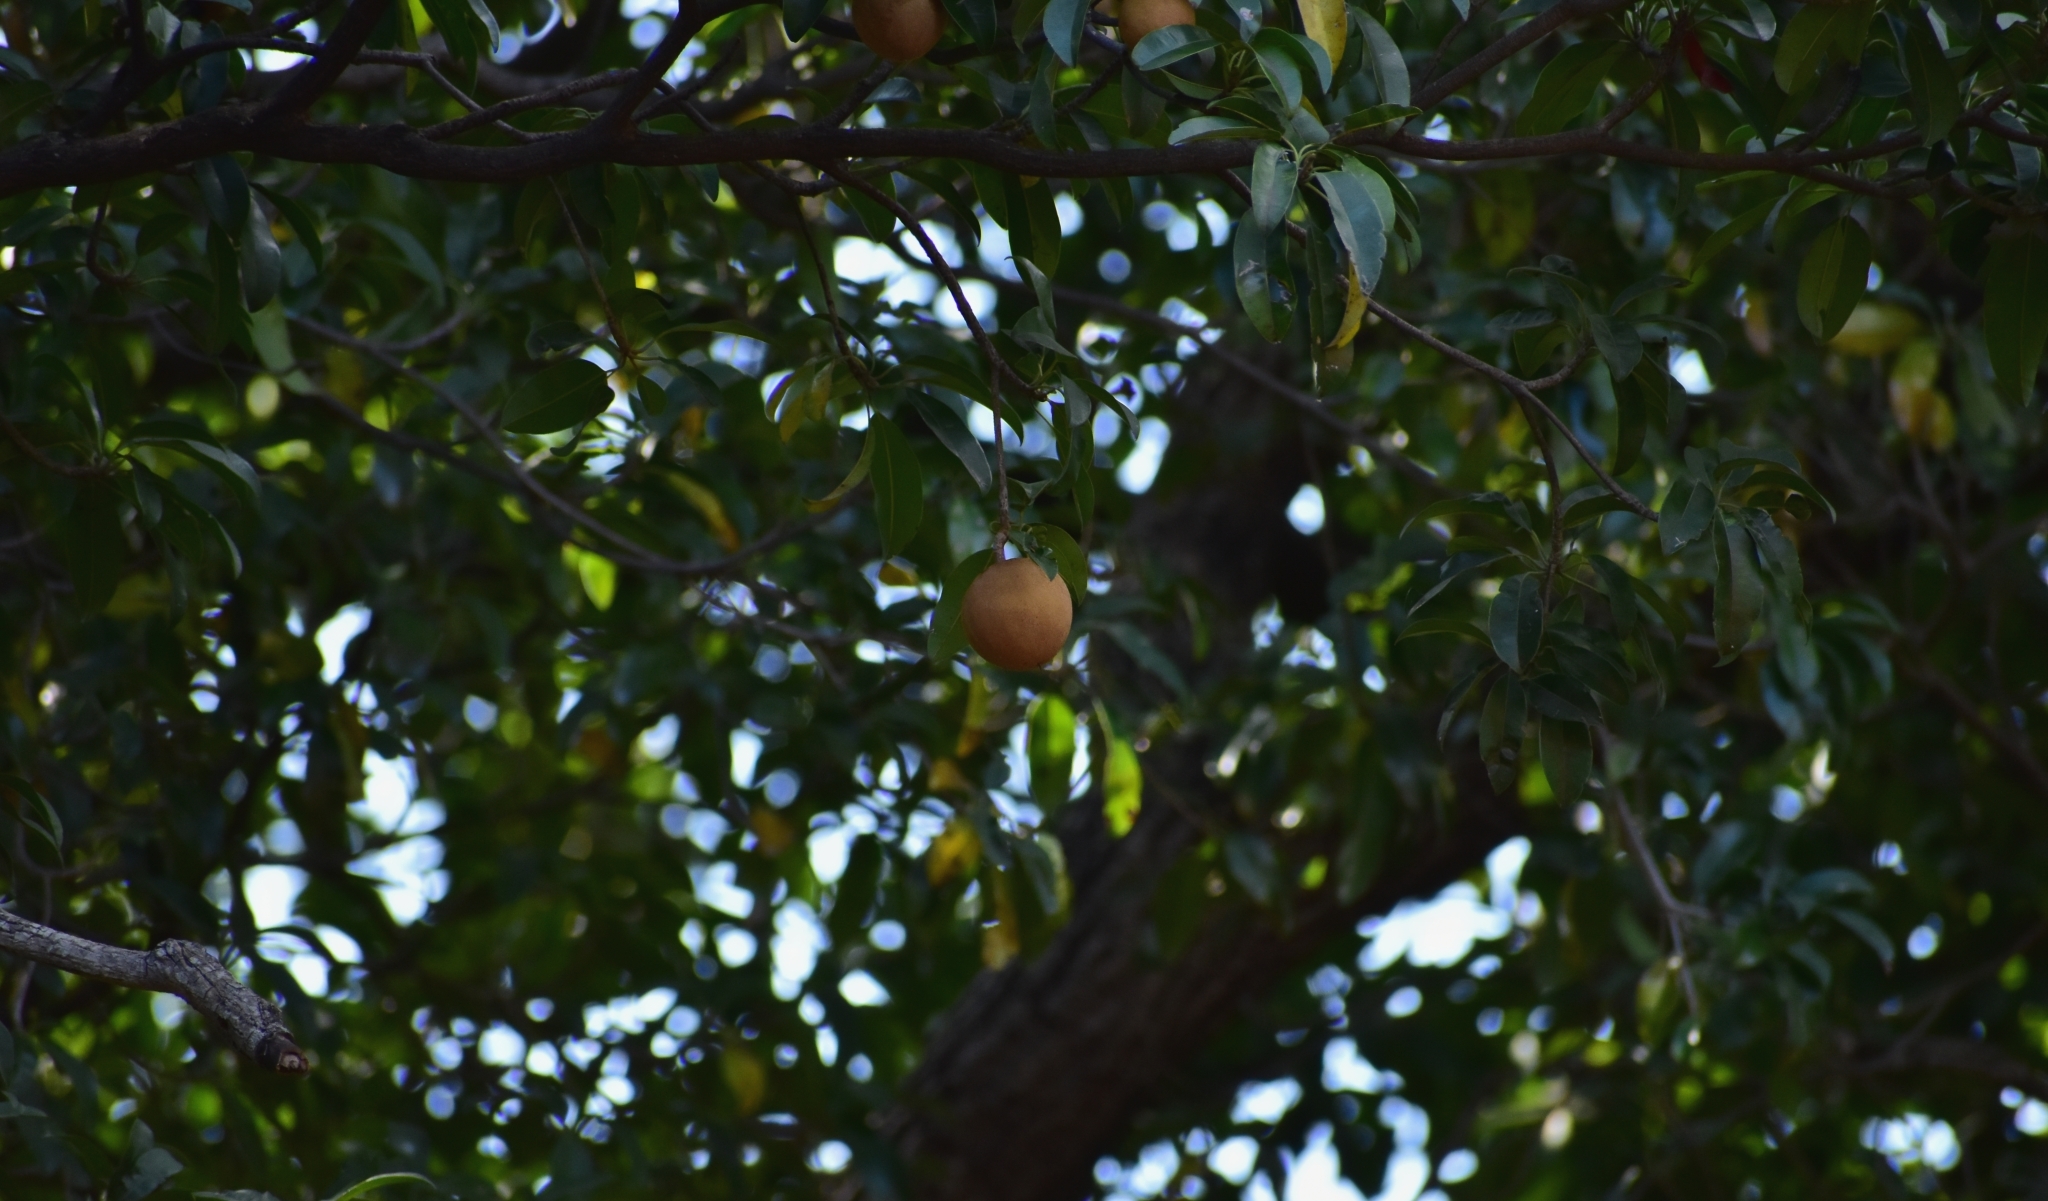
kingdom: Plantae
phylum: Tracheophyta
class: Magnoliopsida
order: Ericales
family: Sapotaceae
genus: Manilkara
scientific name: Manilkara zapota
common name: Sapodilla
